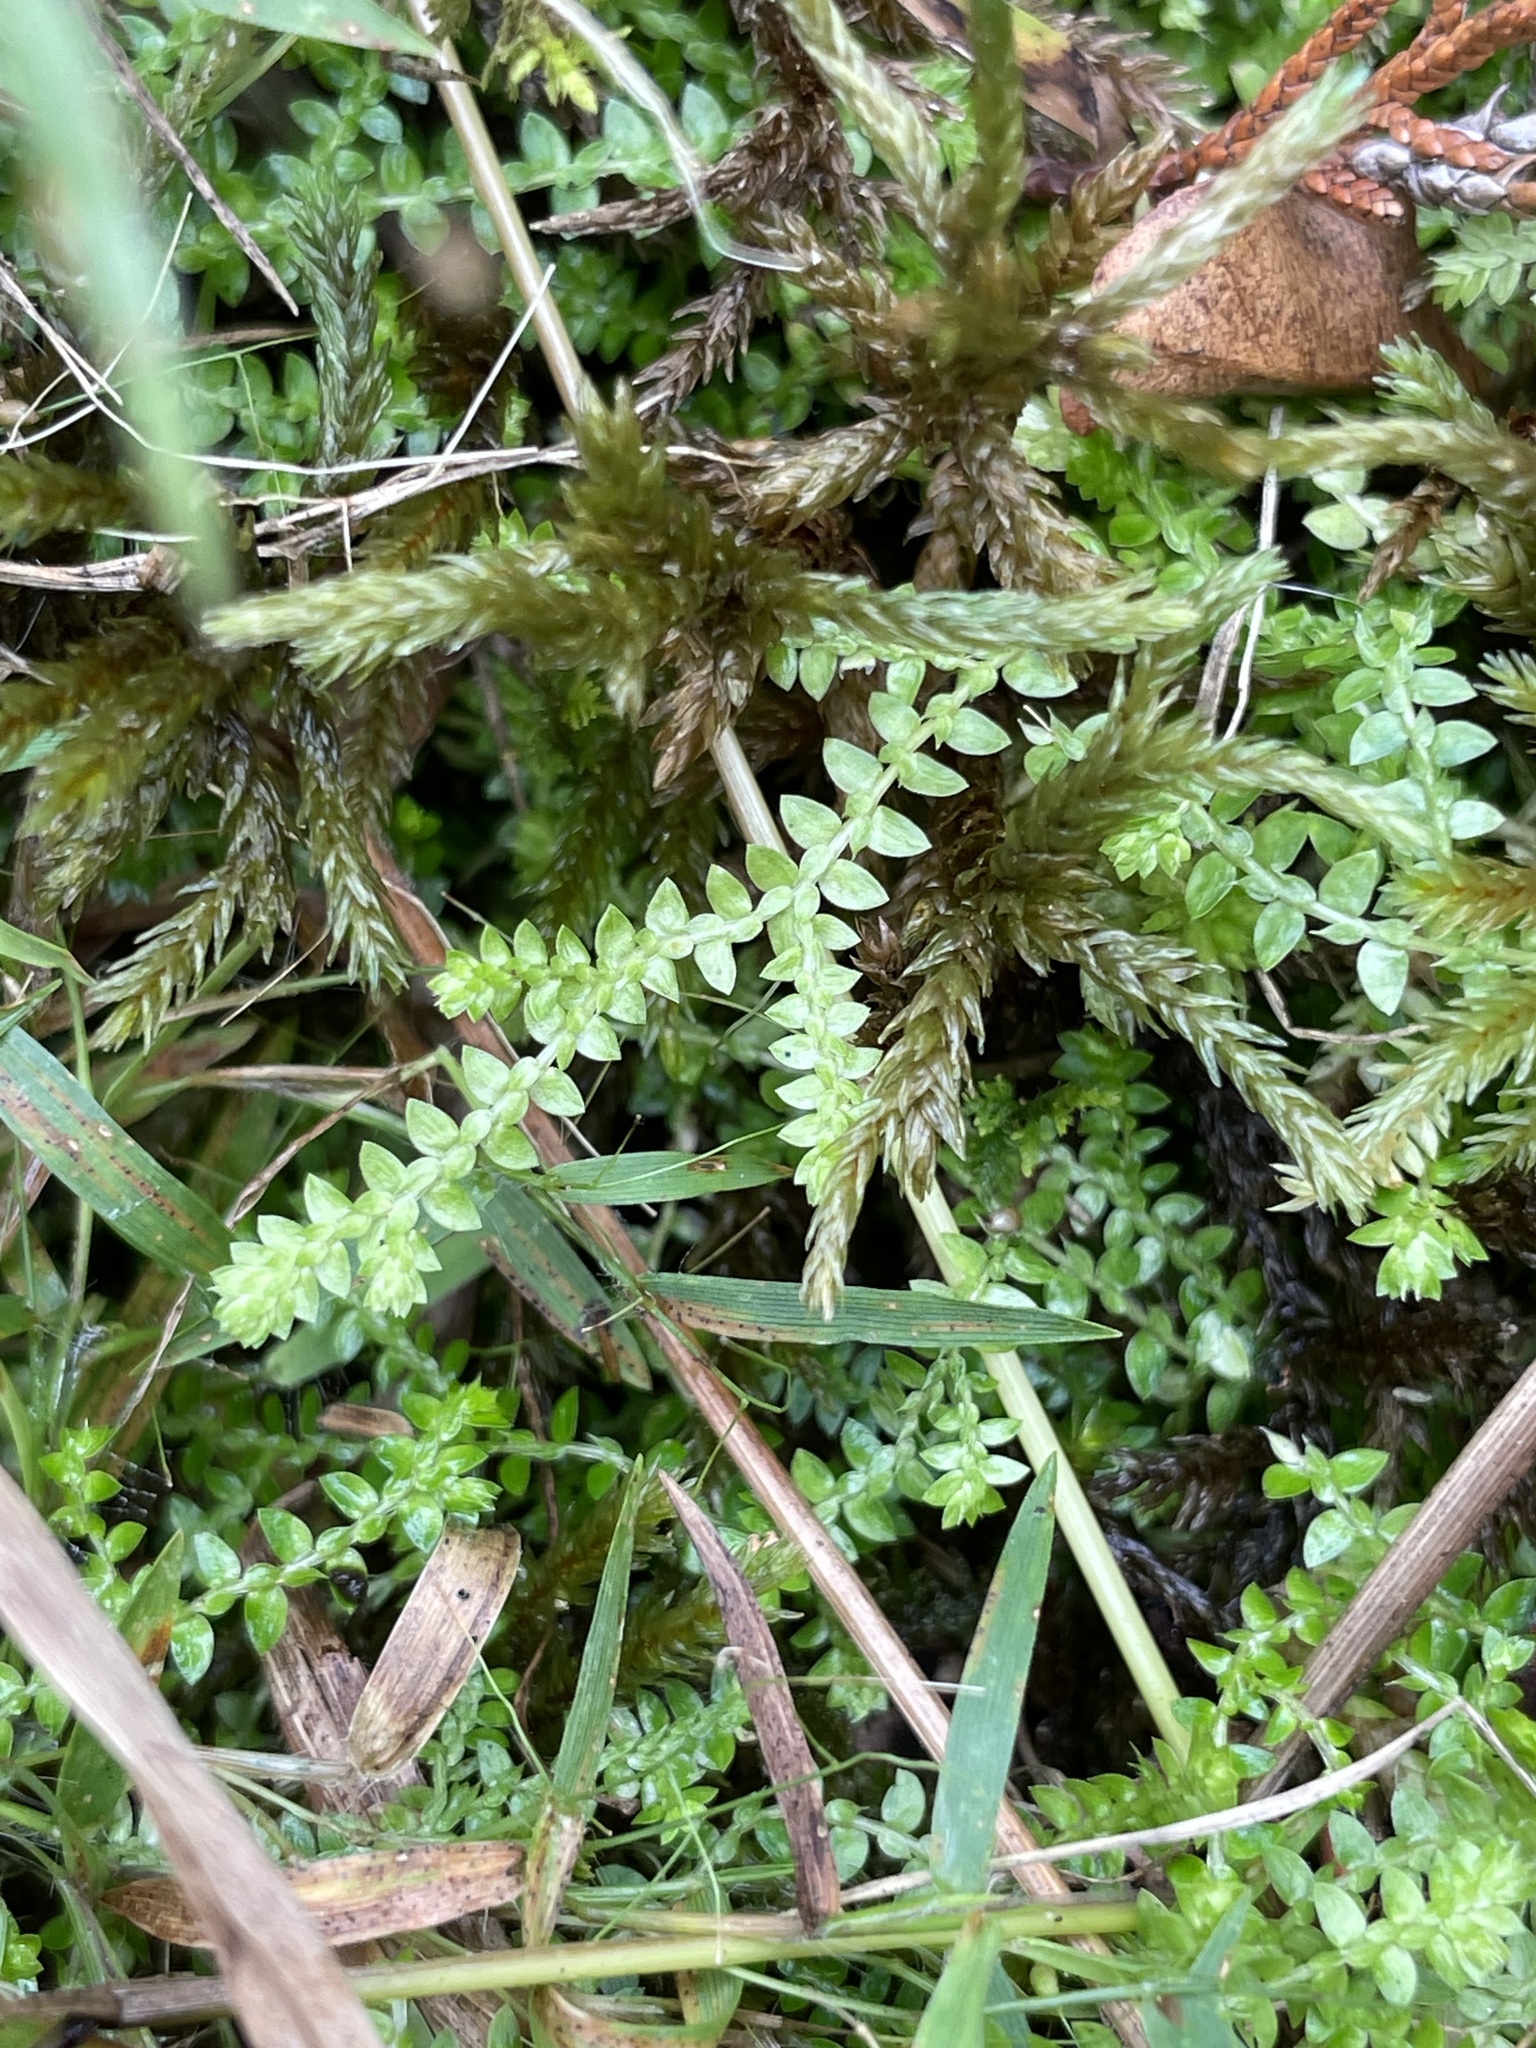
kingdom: Plantae
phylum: Tracheophyta
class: Lycopodiopsida
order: Selaginellales
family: Selaginellaceae
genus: Selaginella
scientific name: Selaginella apoda
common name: Creeping spikemoss
